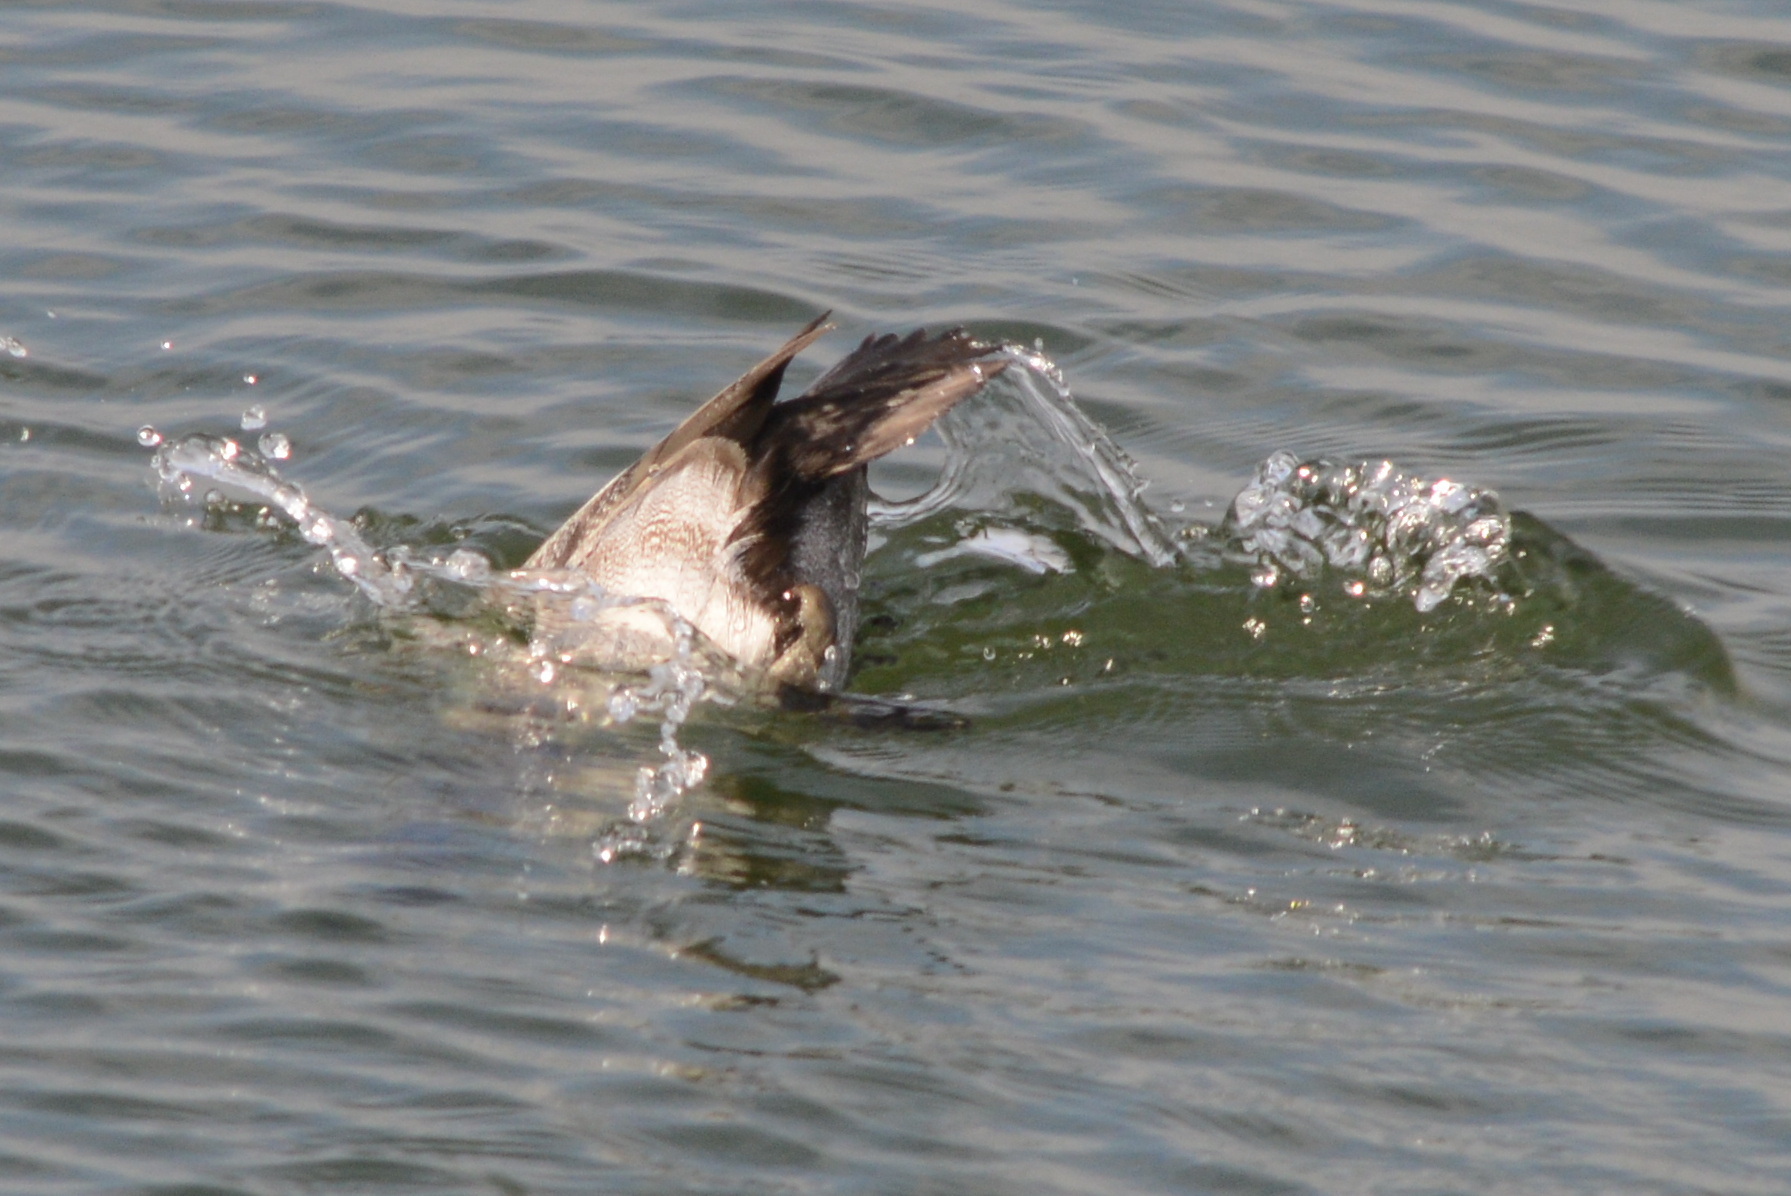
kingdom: Animalia
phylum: Chordata
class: Aves
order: Anseriformes
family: Anatidae
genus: Aythya
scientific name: Aythya affinis
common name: Lesser scaup
